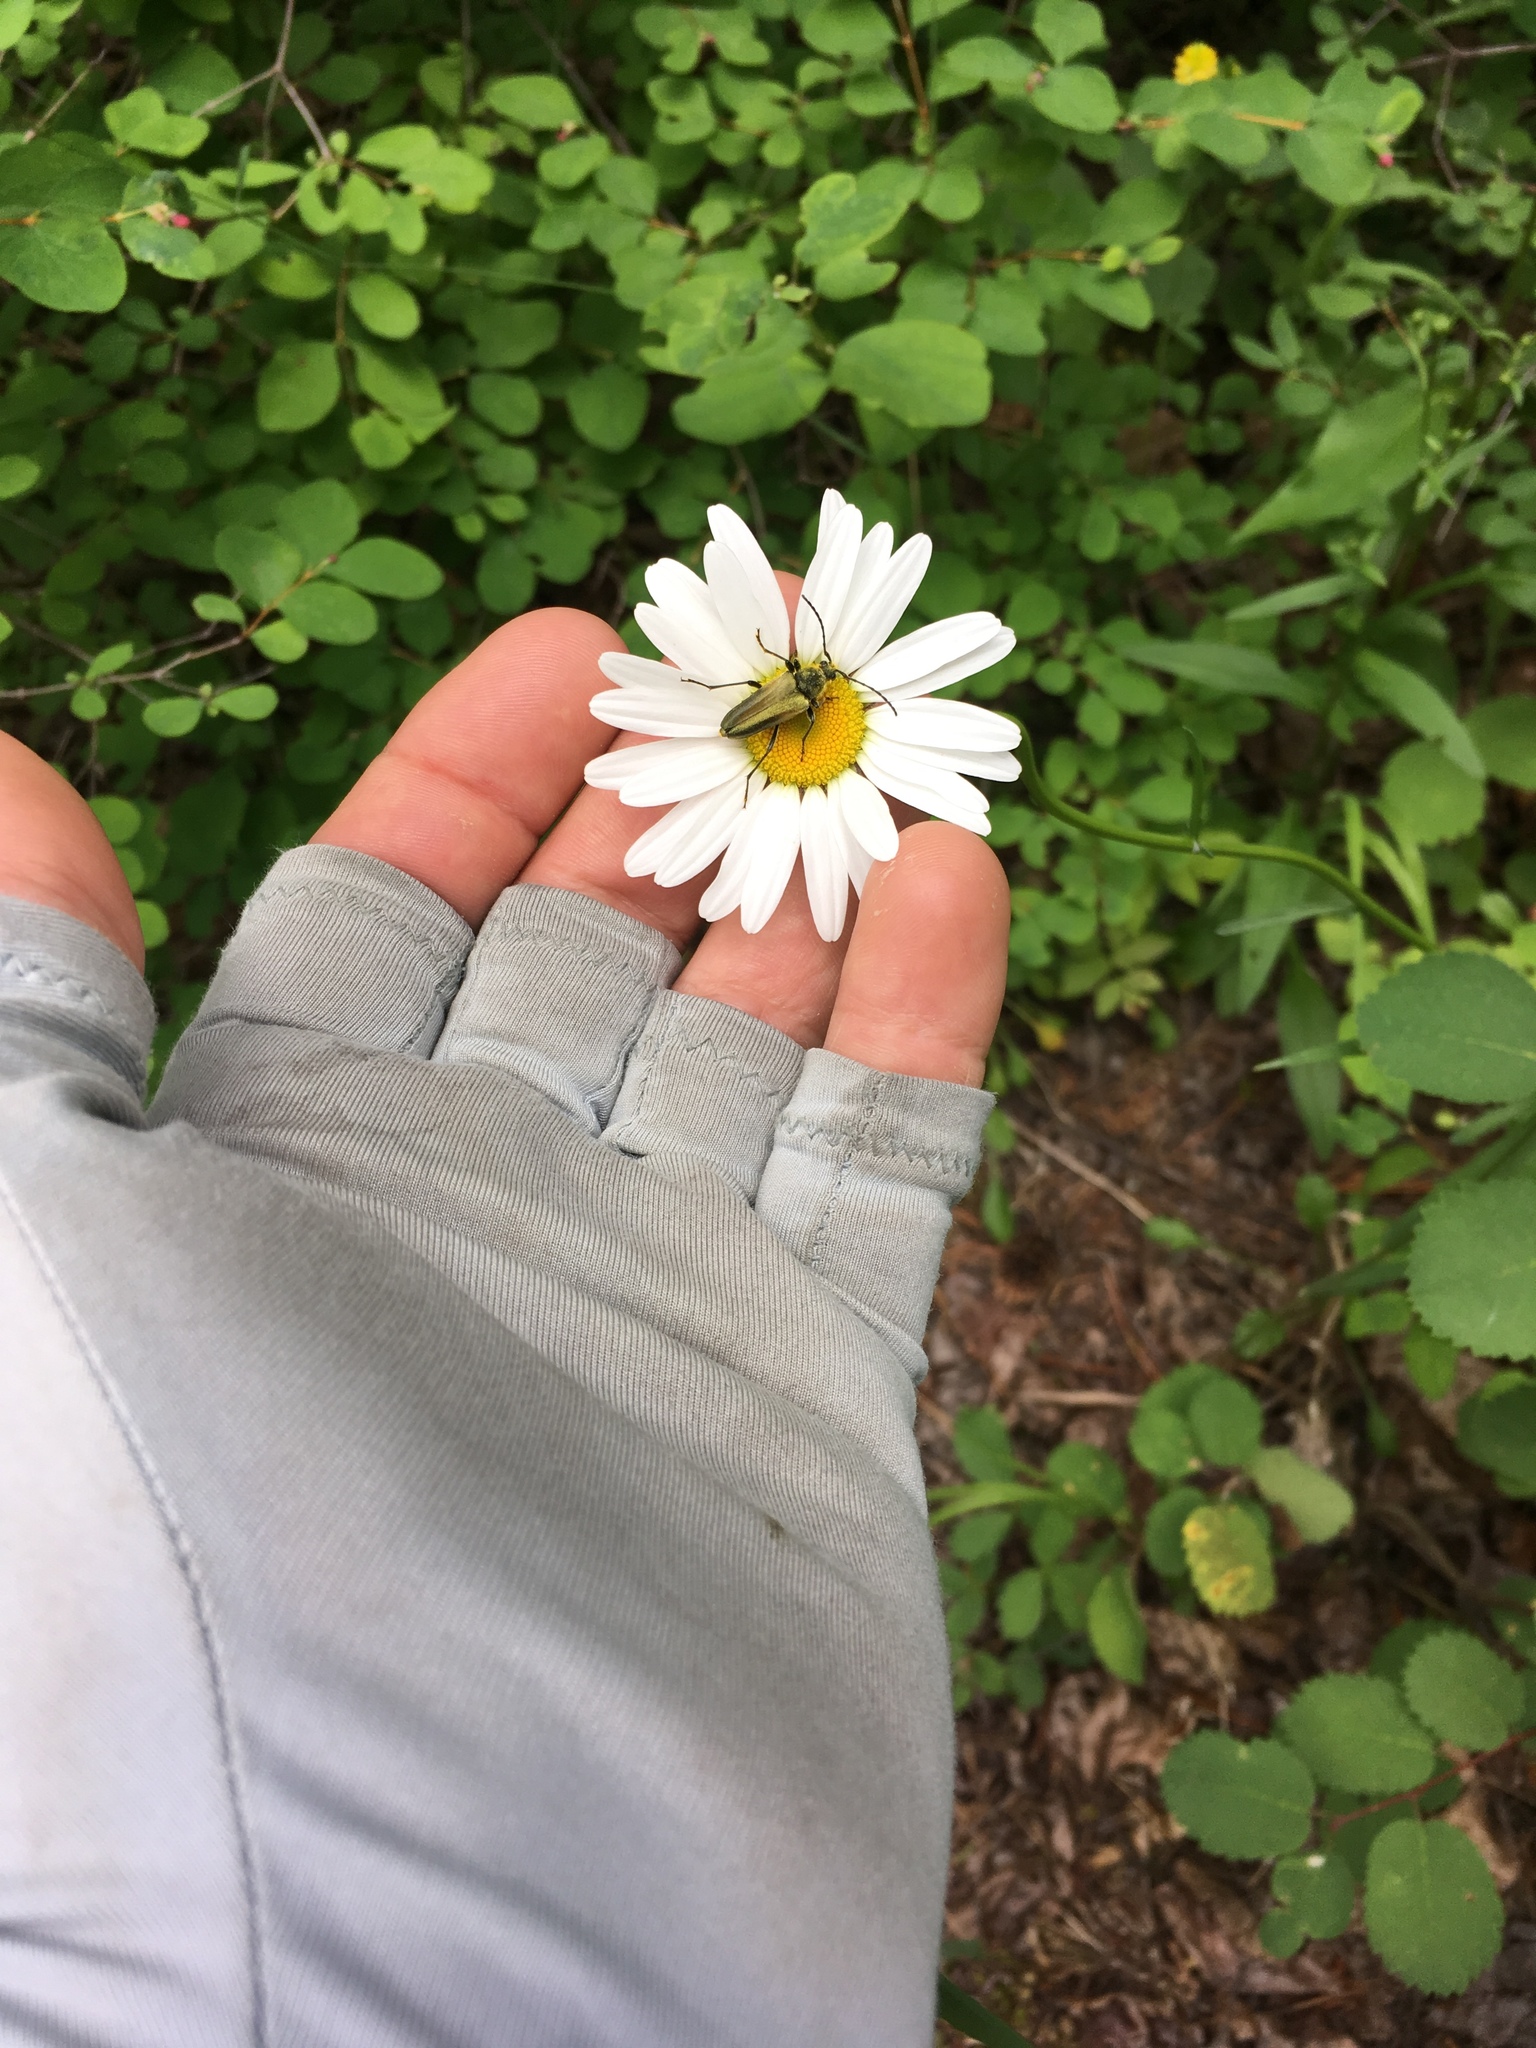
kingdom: Animalia
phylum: Arthropoda
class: Insecta
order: Coleoptera
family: Cerambycidae
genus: Cosmosalia
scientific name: Cosmosalia chrysocoma
